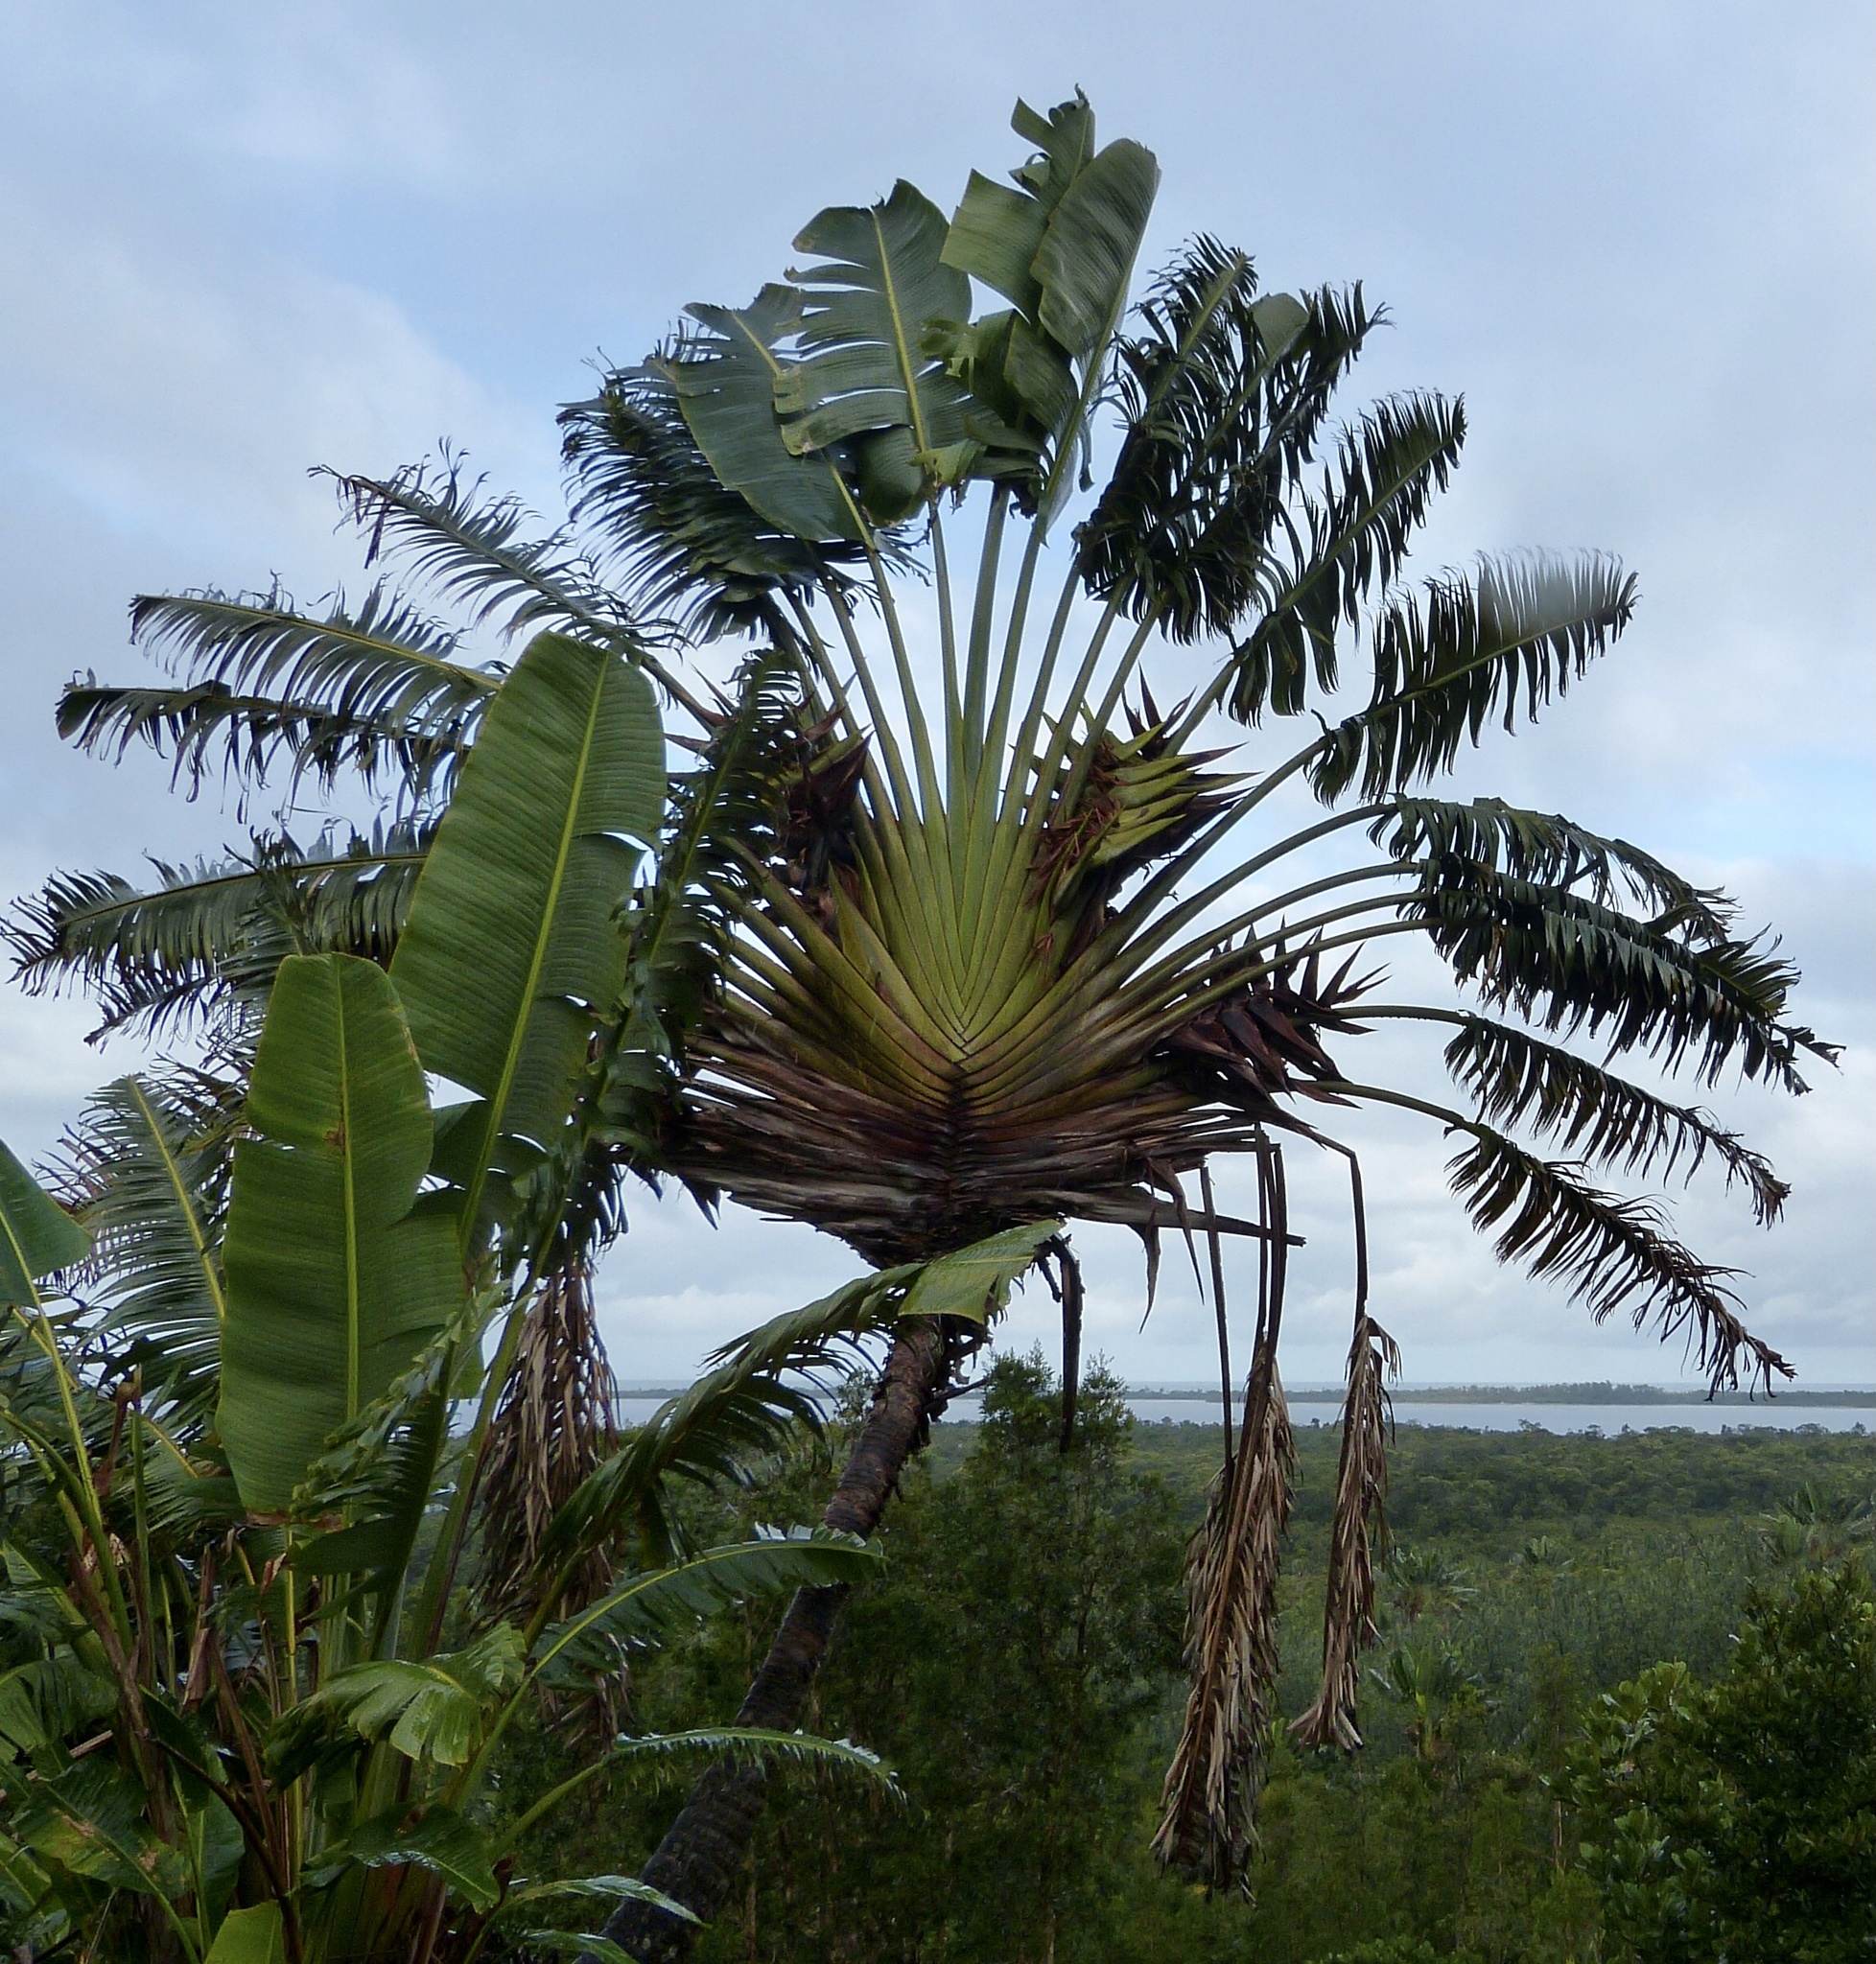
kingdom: Plantae
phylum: Tracheophyta
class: Liliopsida
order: Zingiberales
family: Strelitziaceae
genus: Ravenala
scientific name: Ravenala madagascariensis
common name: Traveler's-palm
